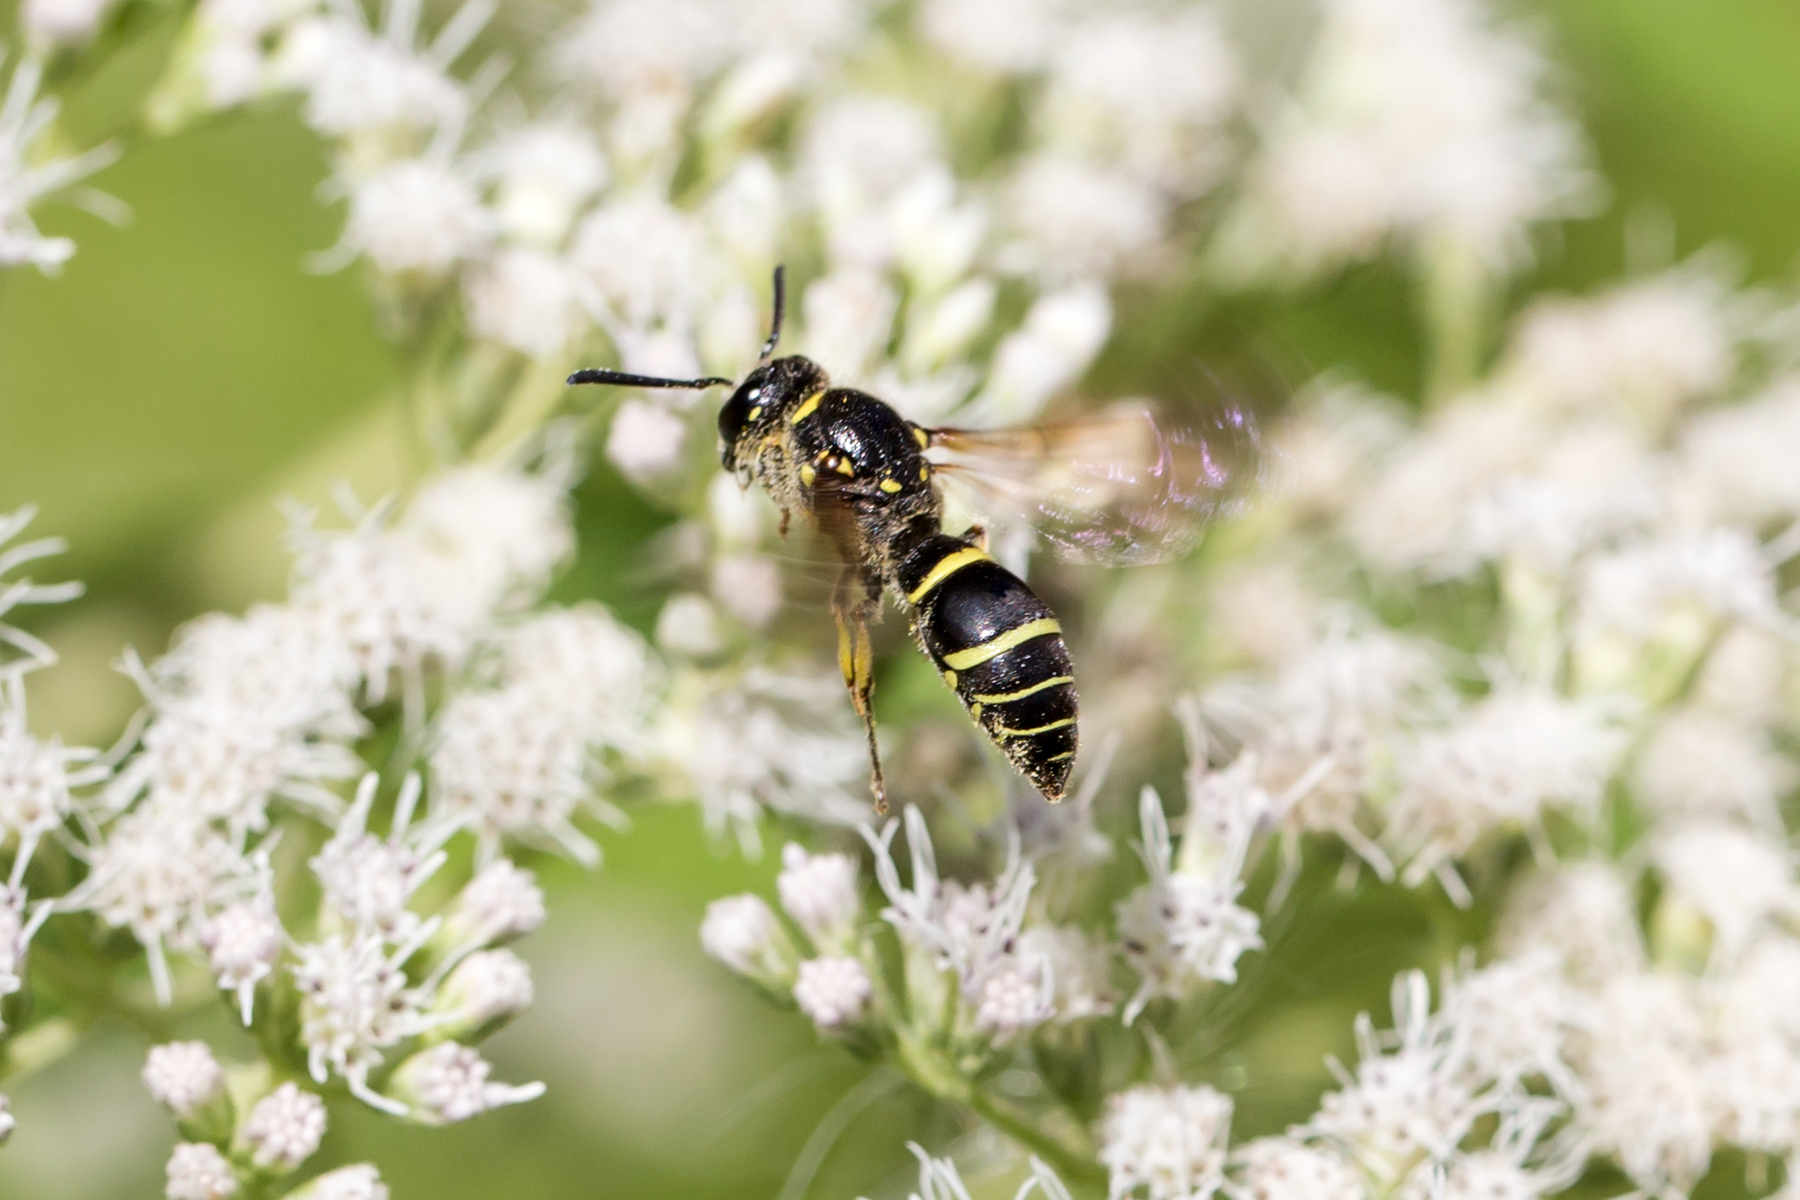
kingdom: Animalia
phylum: Arthropoda
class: Insecta
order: Hymenoptera
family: Vespidae
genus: Ancistrocerus
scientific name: Ancistrocerus
